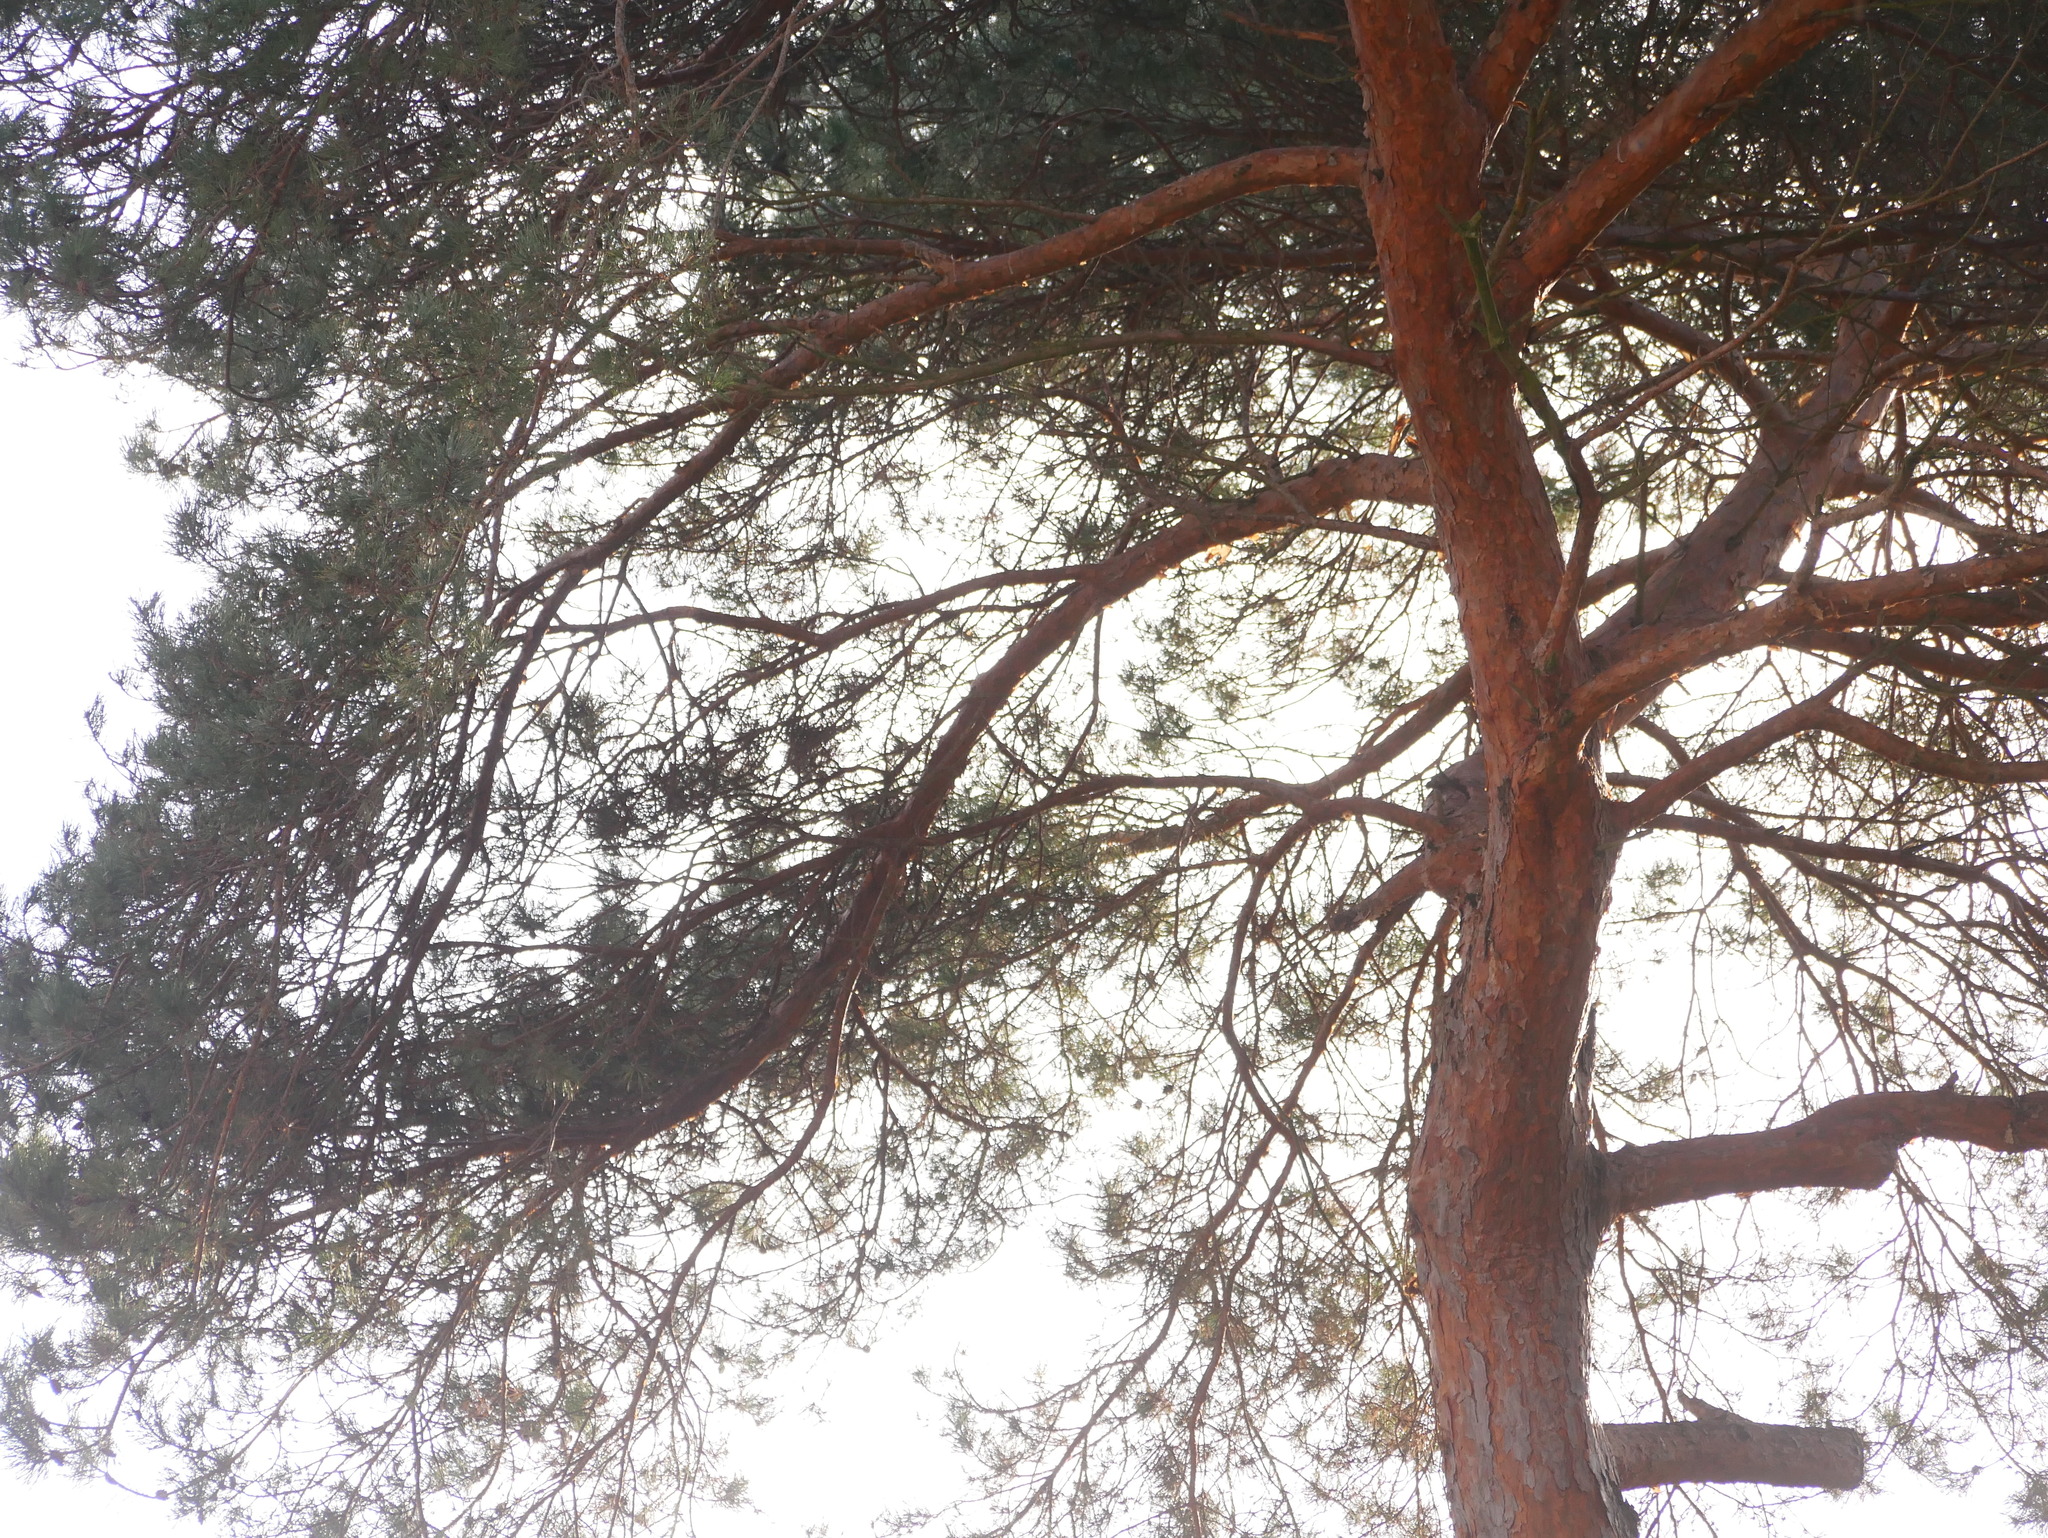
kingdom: Plantae
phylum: Tracheophyta
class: Pinopsida
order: Pinales
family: Pinaceae
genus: Pinus
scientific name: Pinus sylvestris
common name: Scots pine
